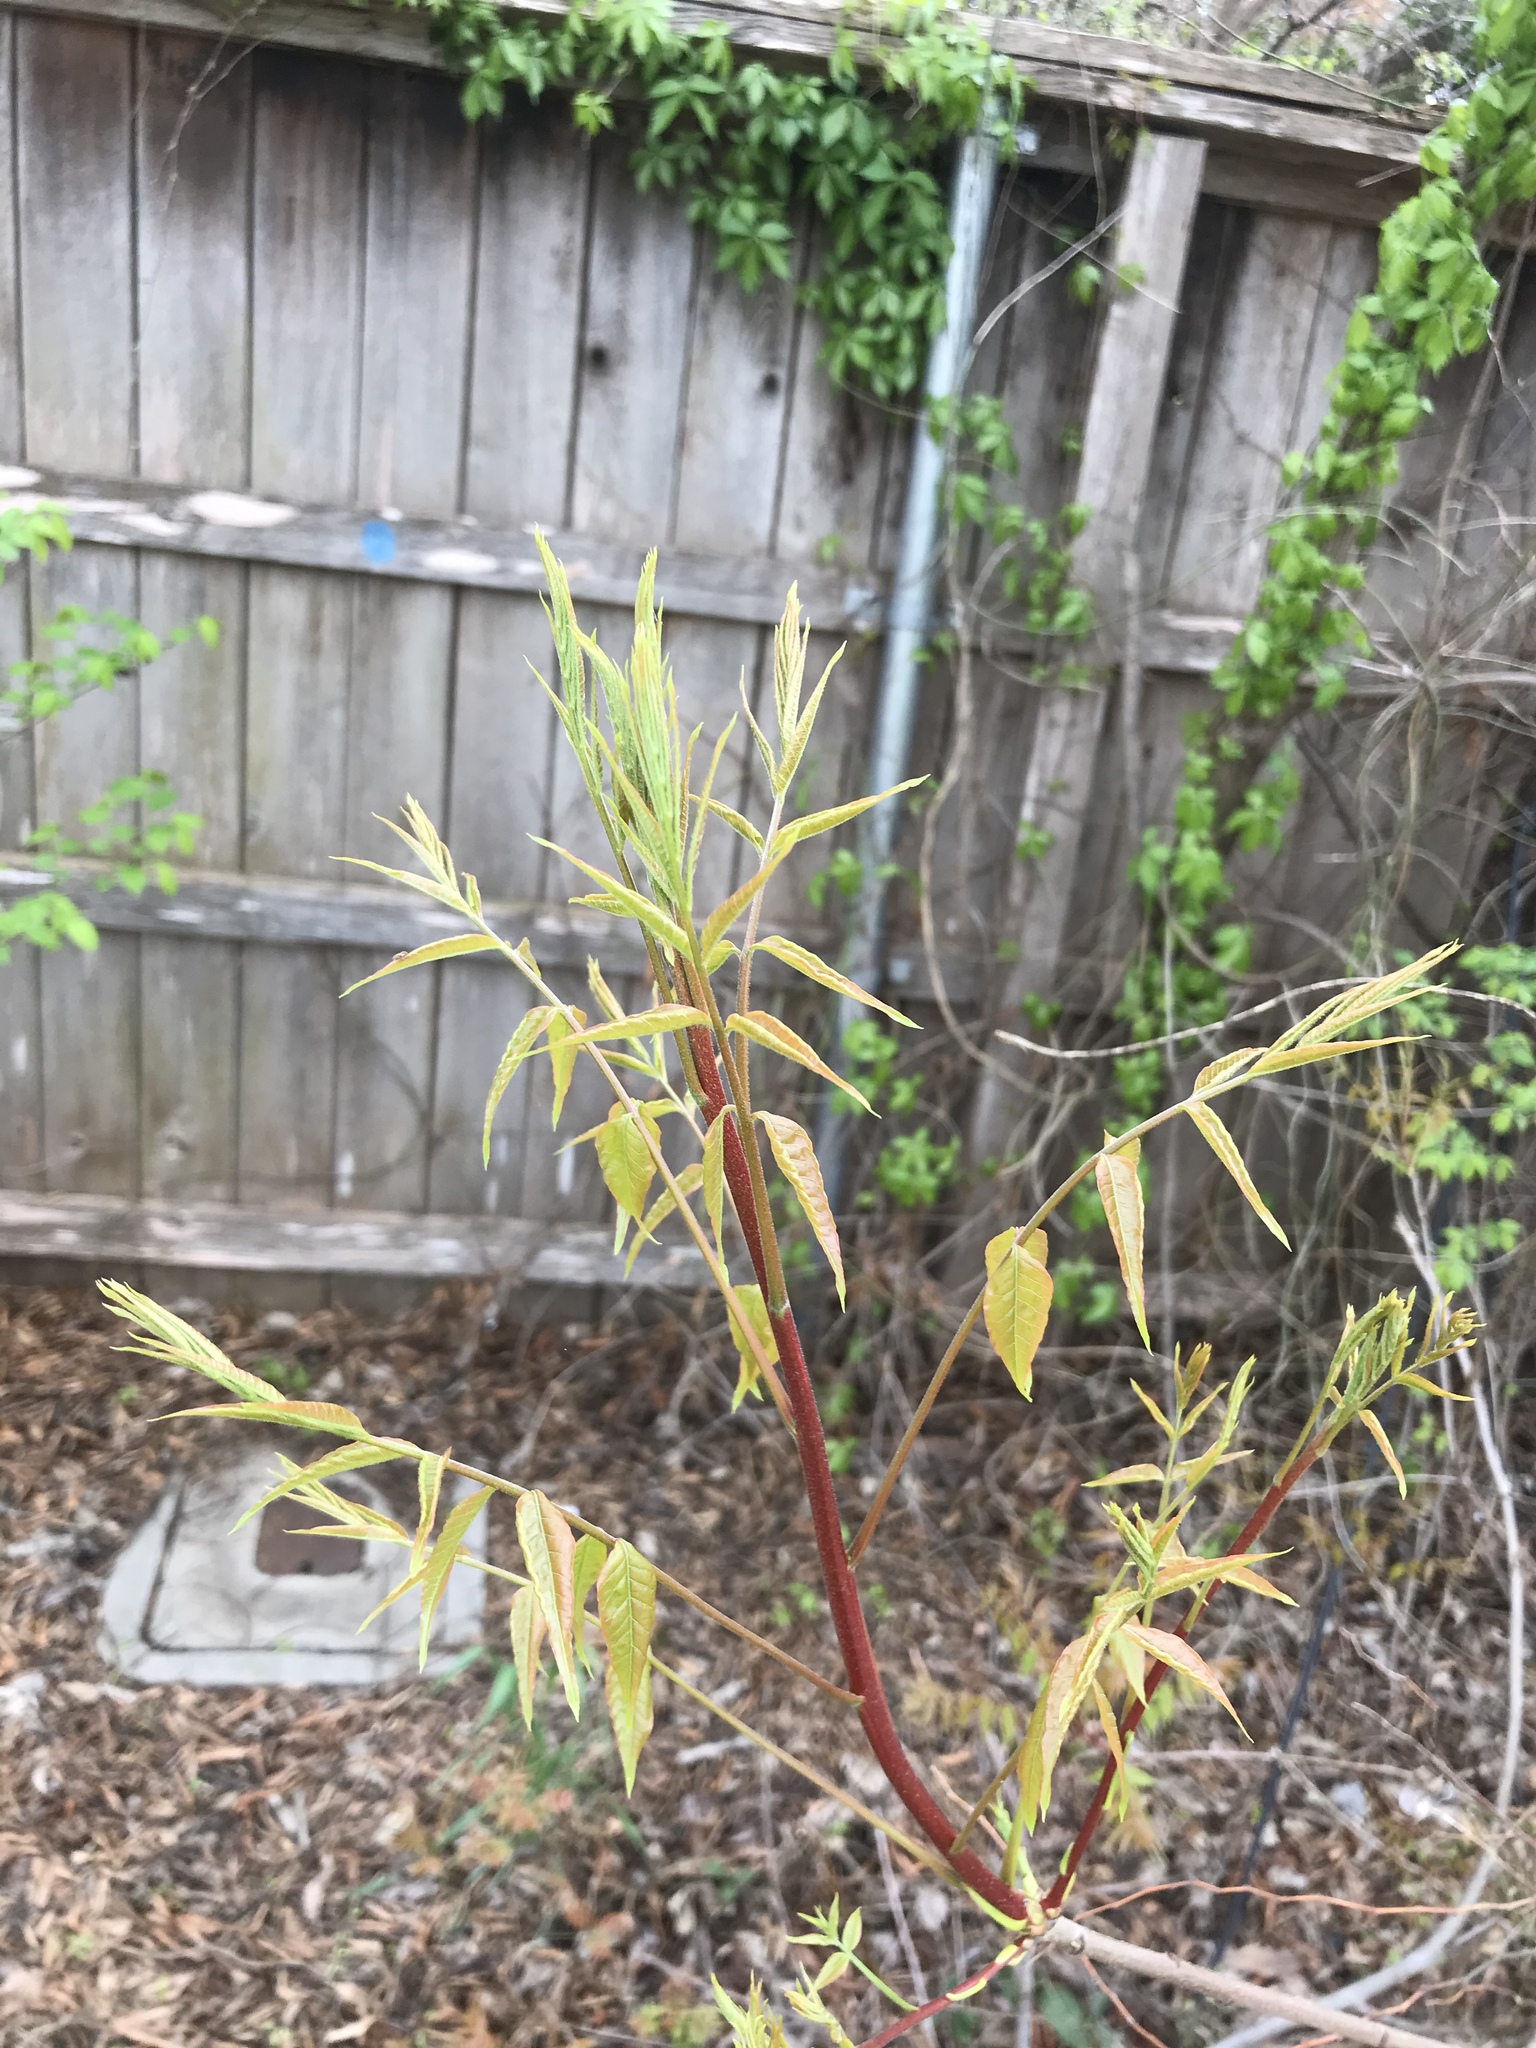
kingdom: Plantae
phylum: Tracheophyta
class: Magnoliopsida
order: Sapindales
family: Anacardiaceae
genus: Pistacia
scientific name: Pistacia chinensis
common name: Chinese pistache
